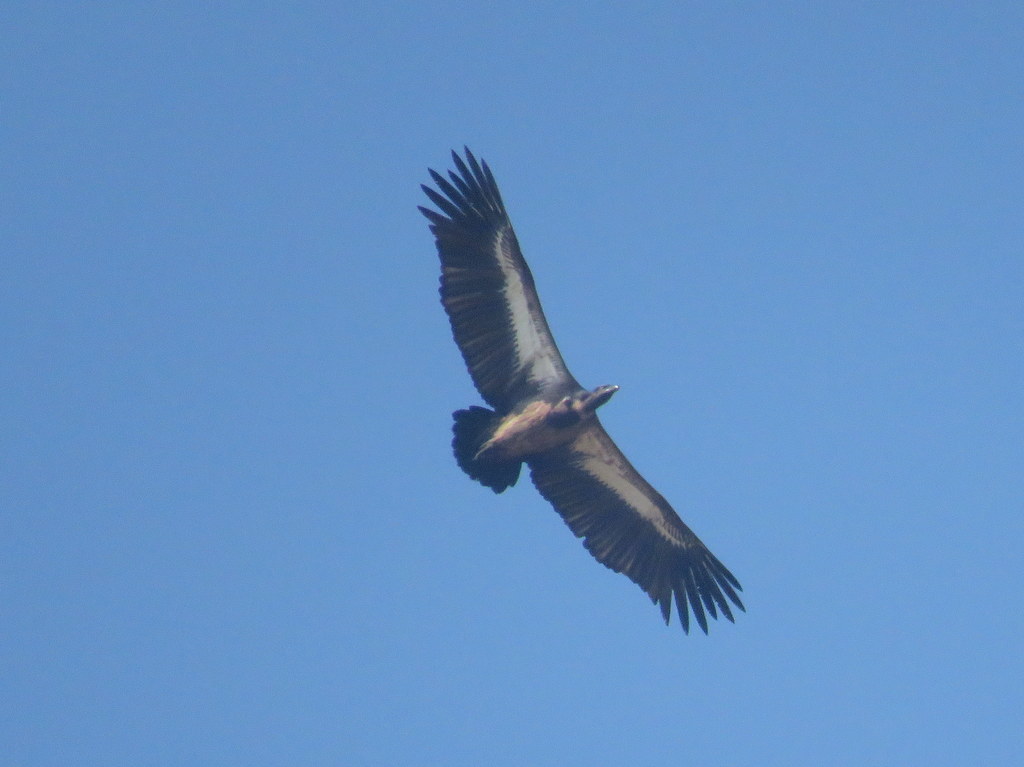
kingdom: Animalia
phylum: Chordata
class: Aves
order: Accipitriformes
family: Accipitridae
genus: Gyps
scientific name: Gyps africanus
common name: White-backed vulture
